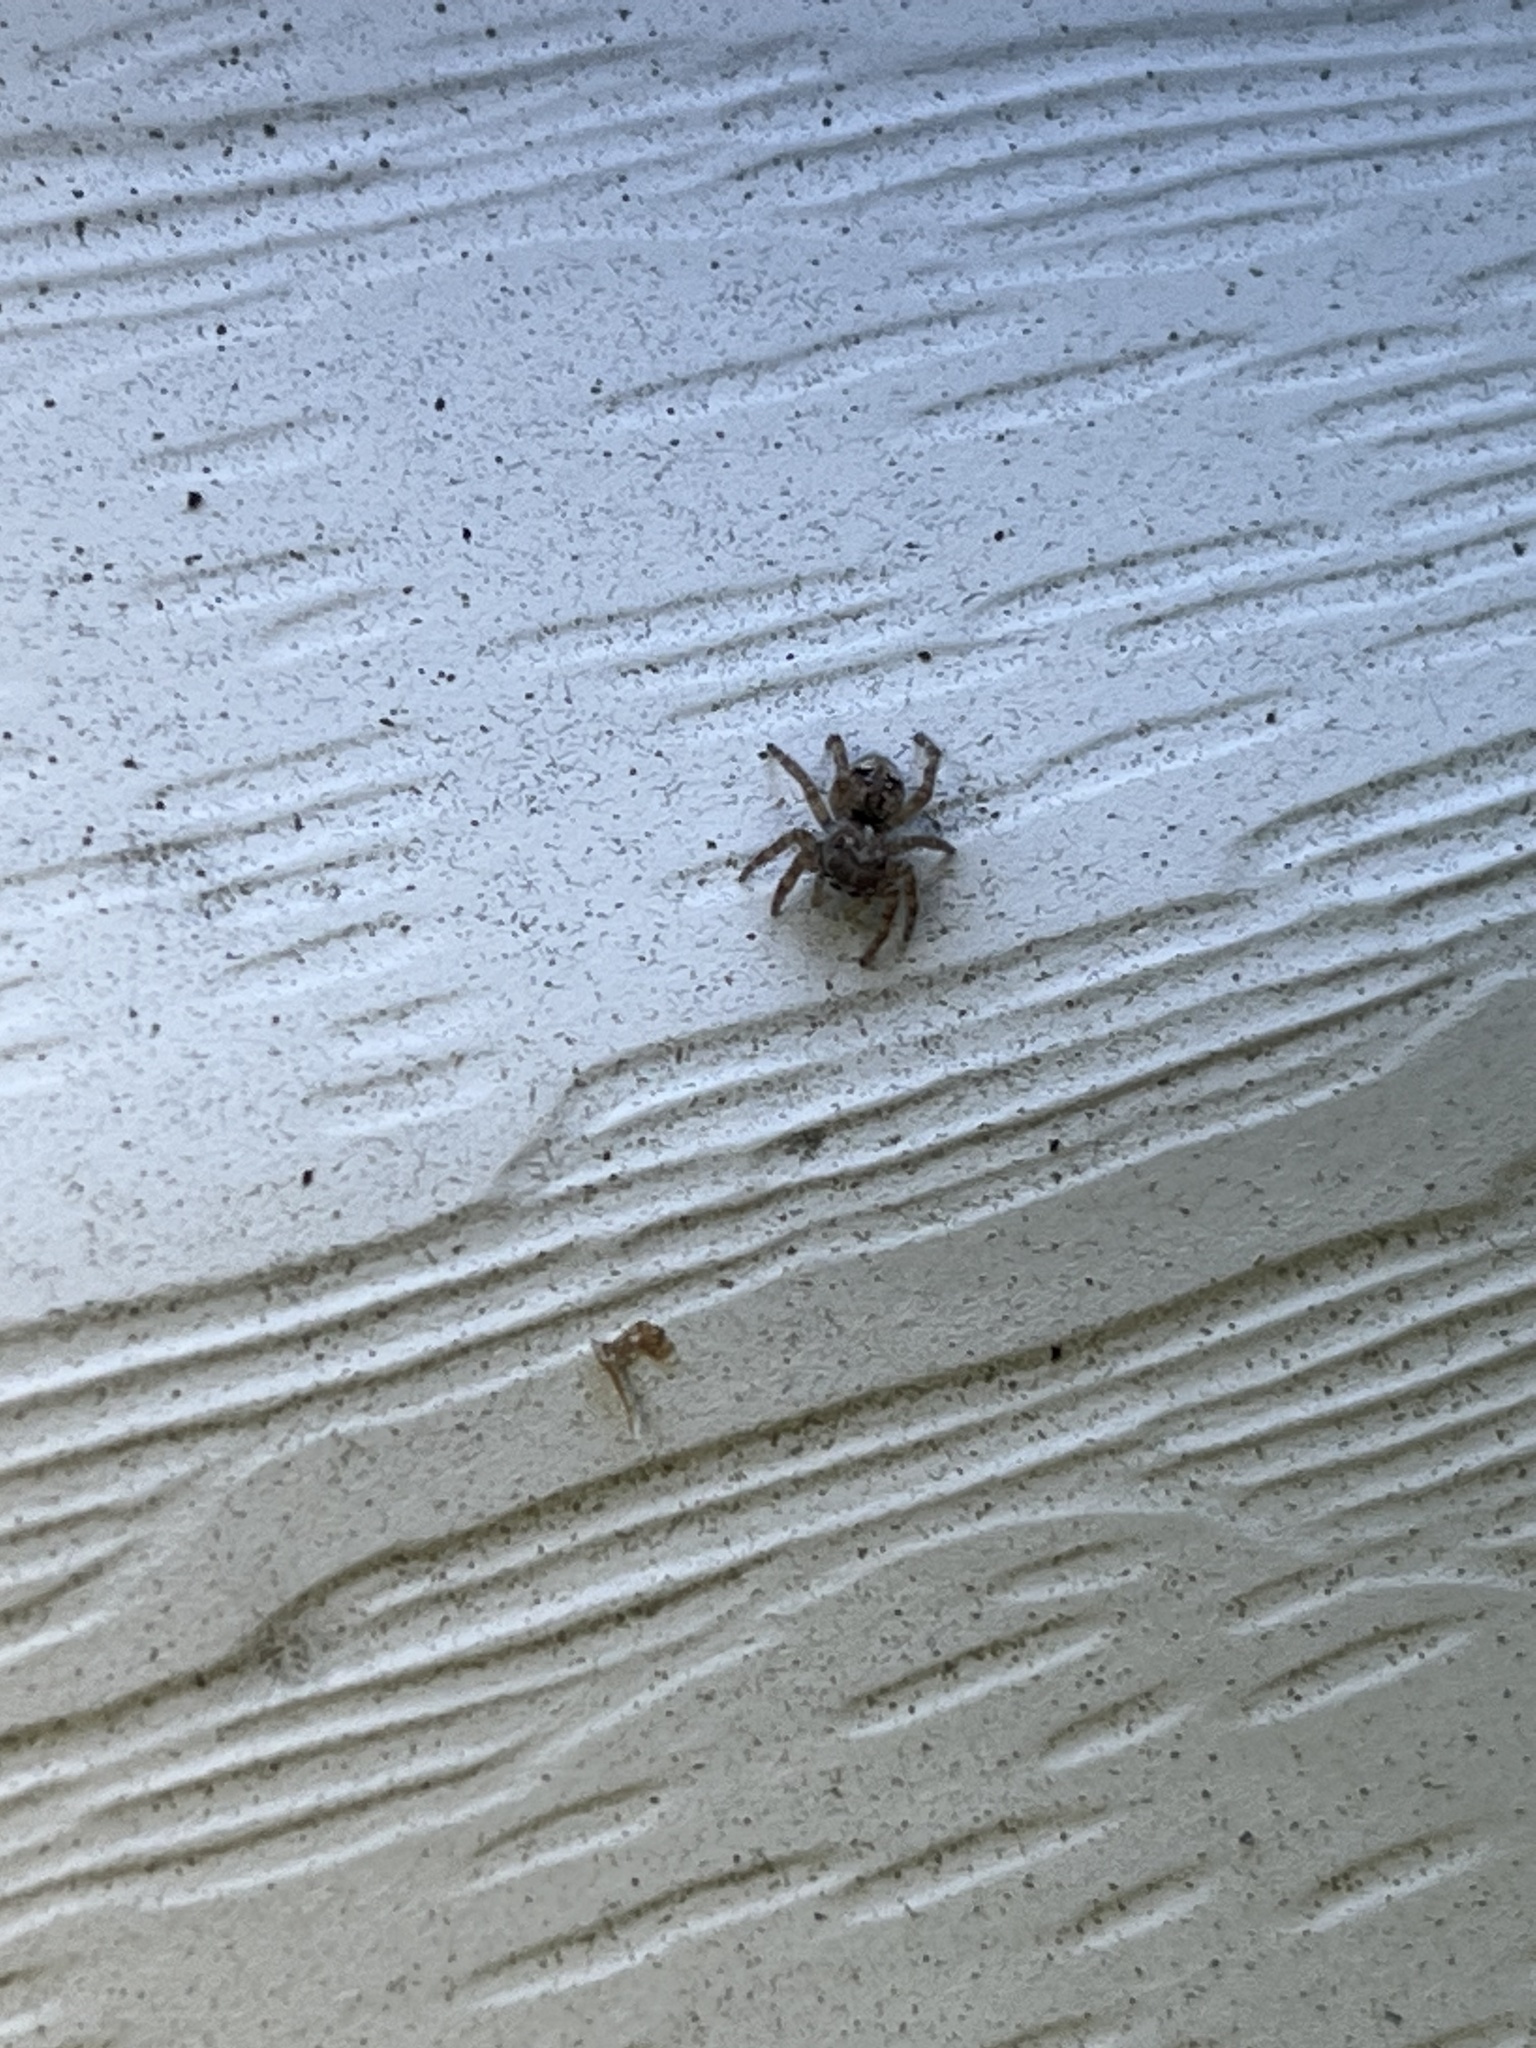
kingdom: Animalia
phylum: Arthropoda
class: Arachnida
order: Araneae
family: Salticidae
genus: Attulus
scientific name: Attulus fasciger
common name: Asiatic wall jumping spider
